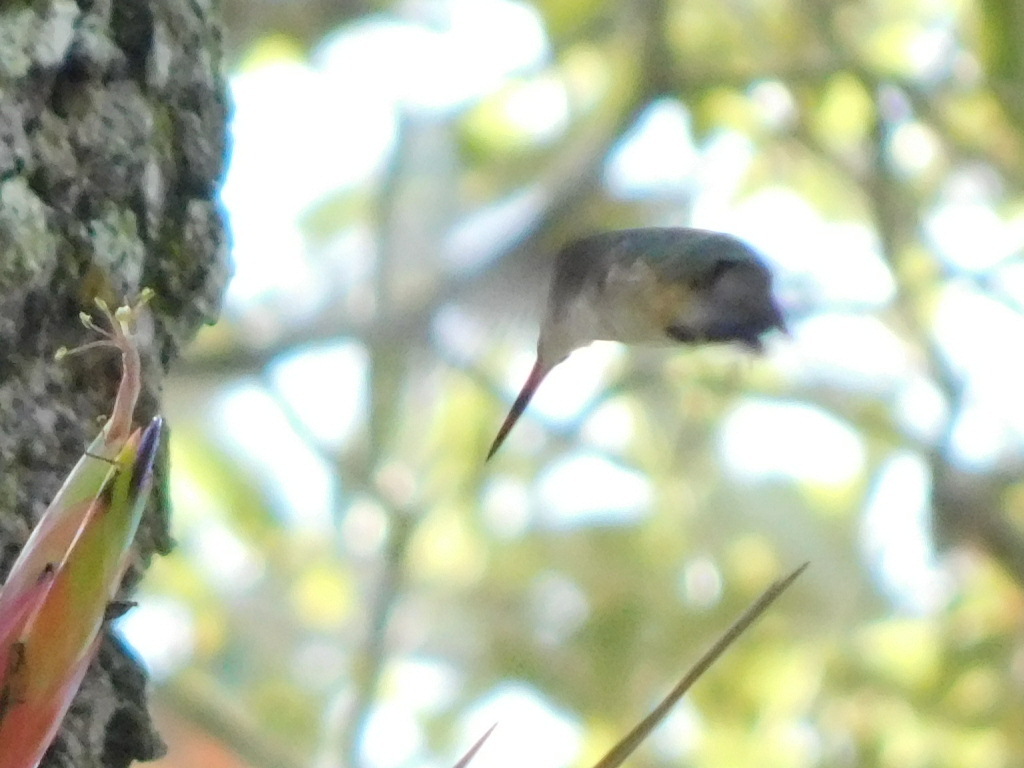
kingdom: Animalia
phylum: Chordata
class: Aves
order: Apodiformes
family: Trochilidae
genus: Archilochus
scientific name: Archilochus colubris
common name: Ruby-throated hummingbird
